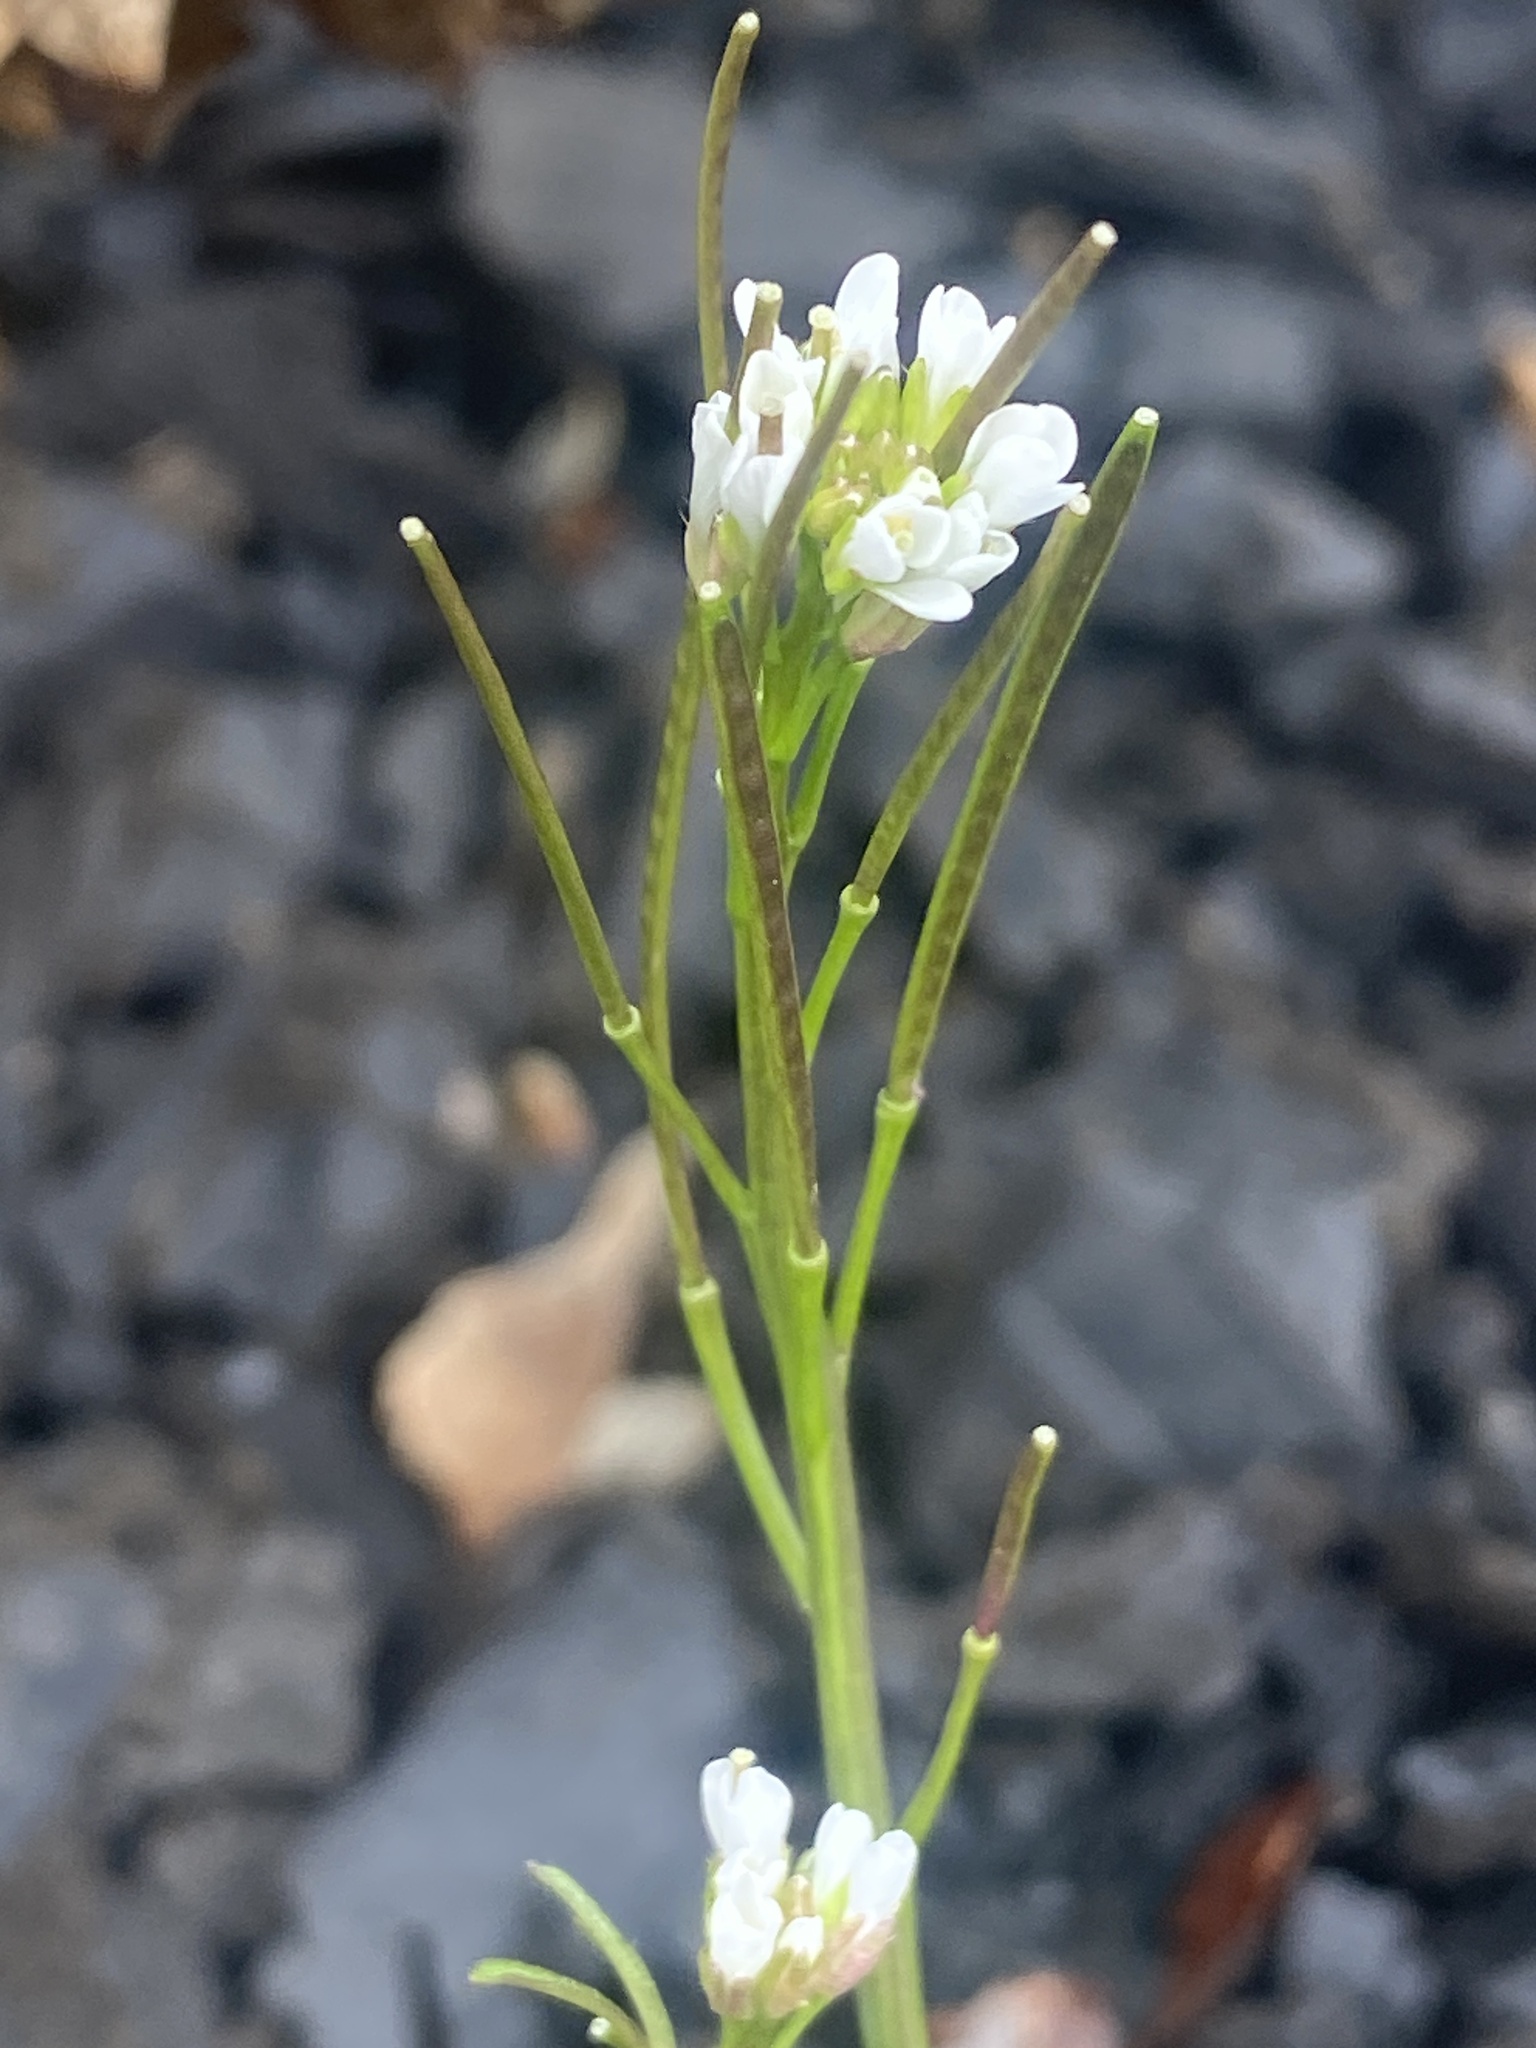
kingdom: Plantae
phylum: Tracheophyta
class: Magnoliopsida
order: Brassicales
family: Brassicaceae
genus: Cardamine
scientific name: Cardamine hirsuta
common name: Hairy bittercress
